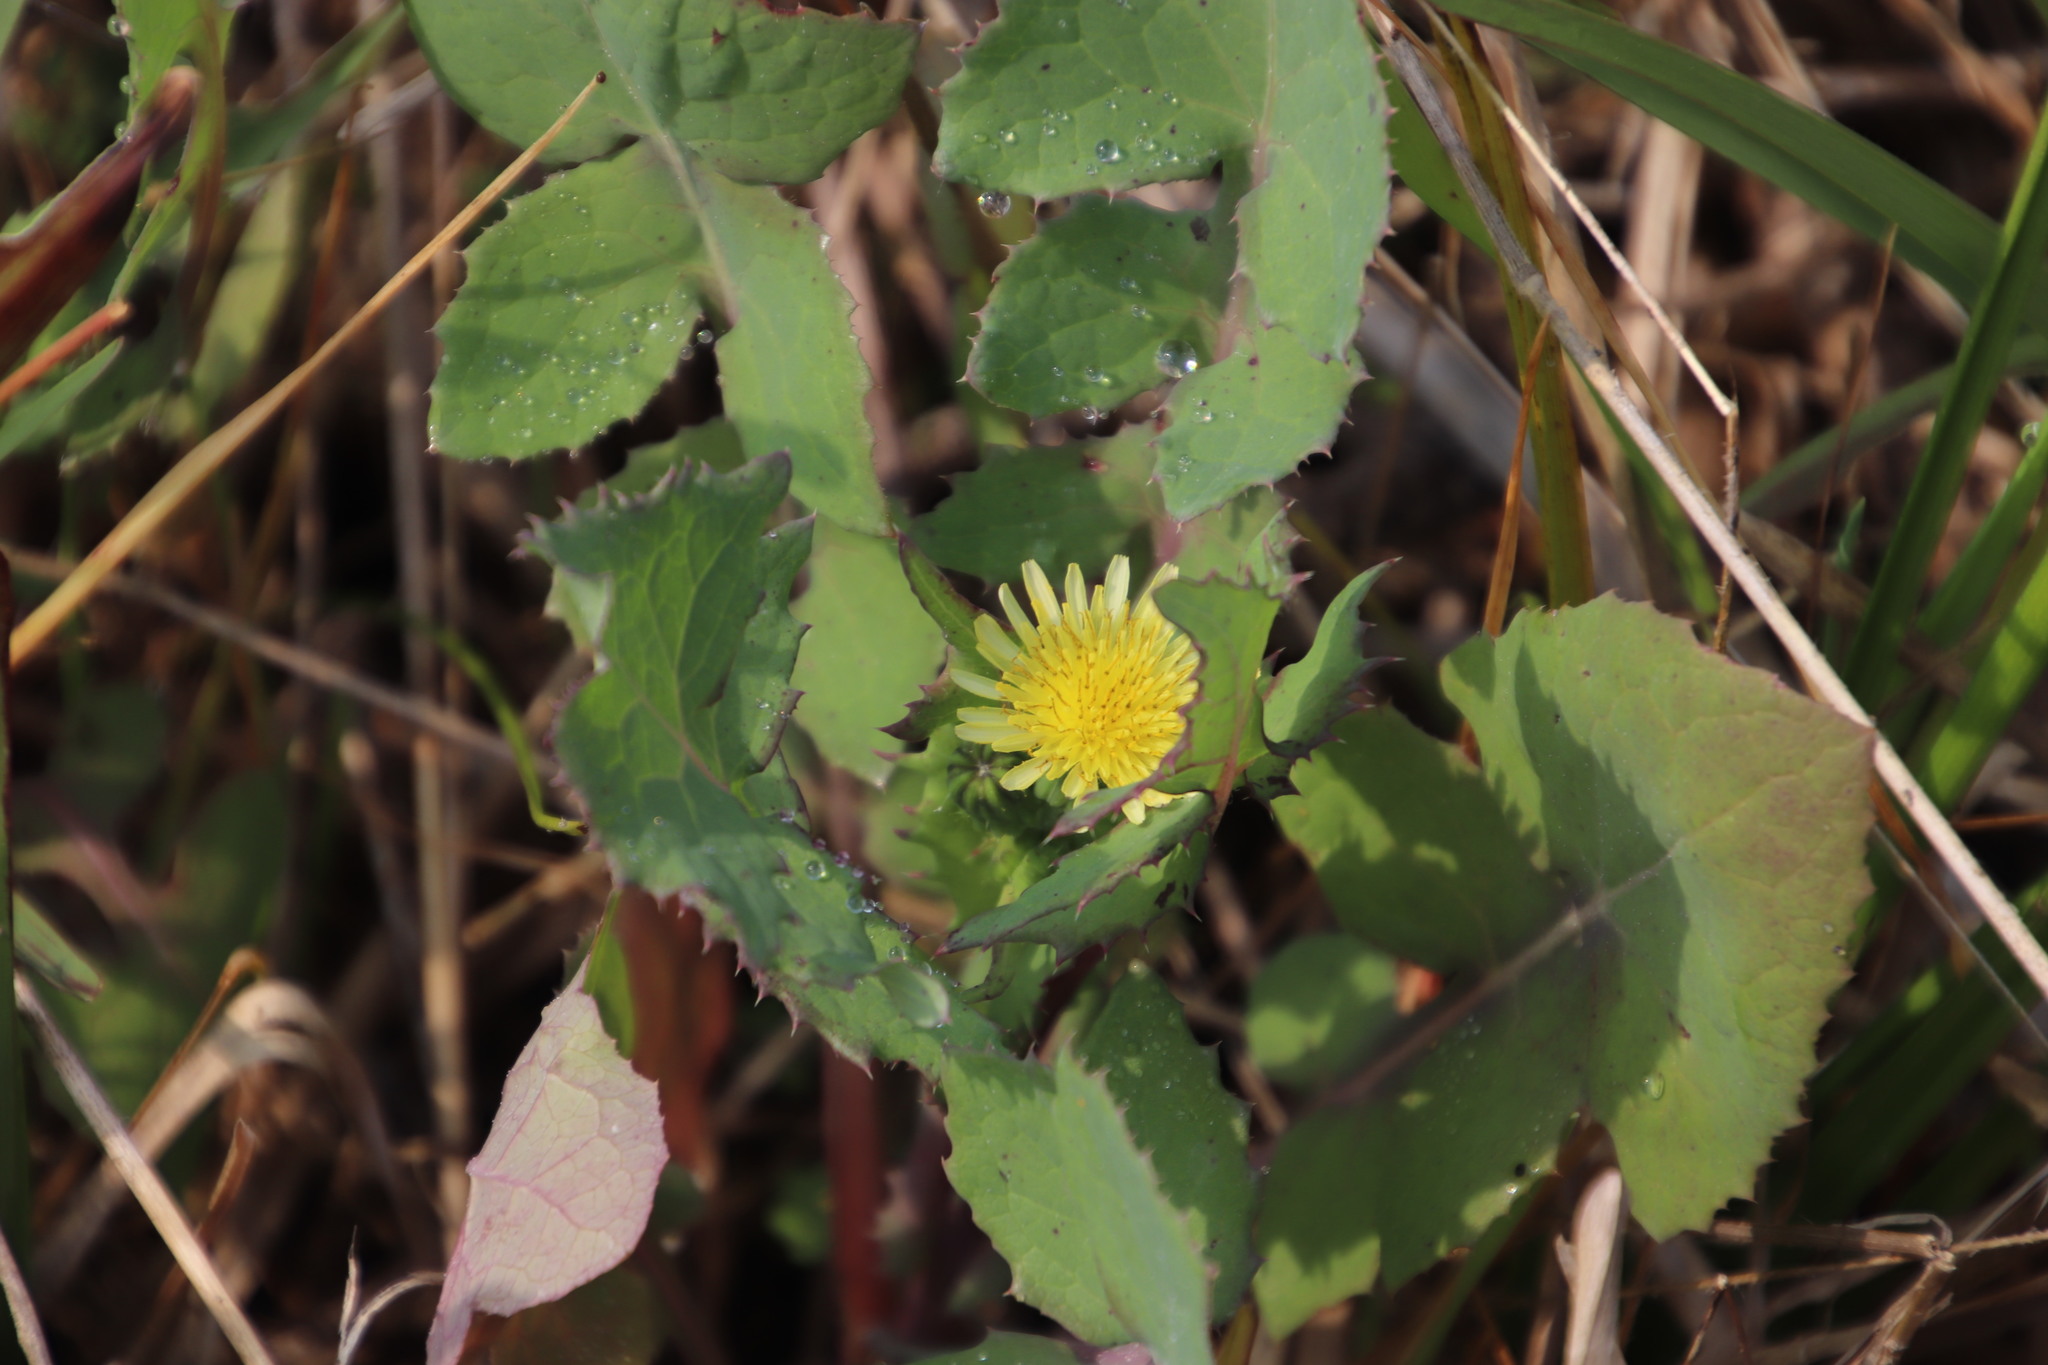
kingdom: Plantae
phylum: Tracheophyta
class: Magnoliopsida
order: Asterales
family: Asteraceae
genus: Sonchus
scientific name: Sonchus oleraceus
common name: Common sowthistle
